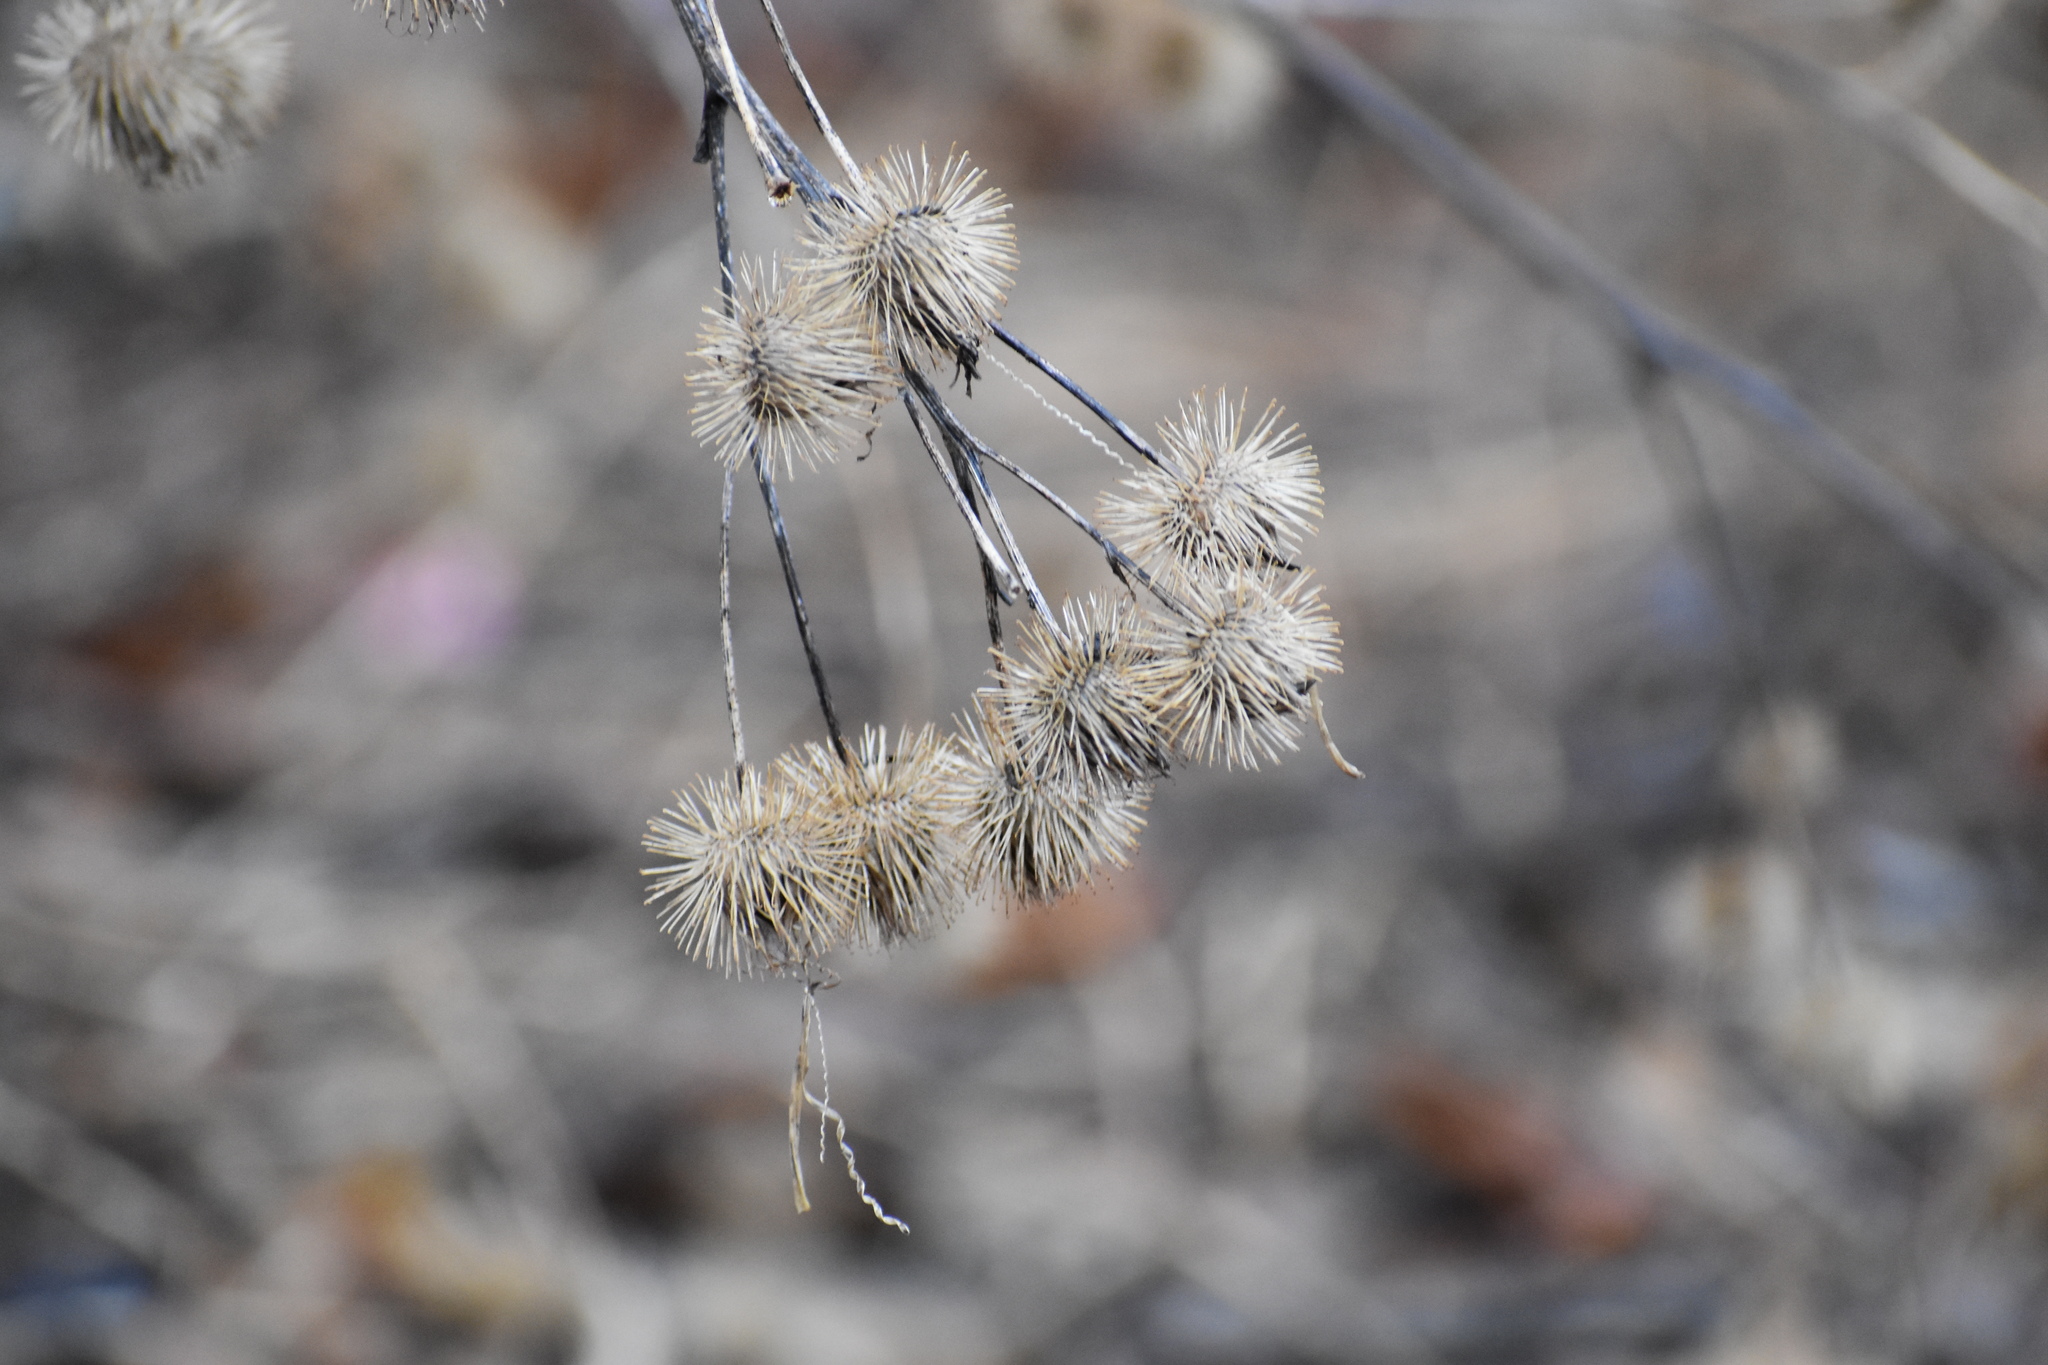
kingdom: Plantae
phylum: Tracheophyta
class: Magnoliopsida
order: Asterales
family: Asteraceae
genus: Arctium
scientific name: Arctium lappa
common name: Greater burdock
